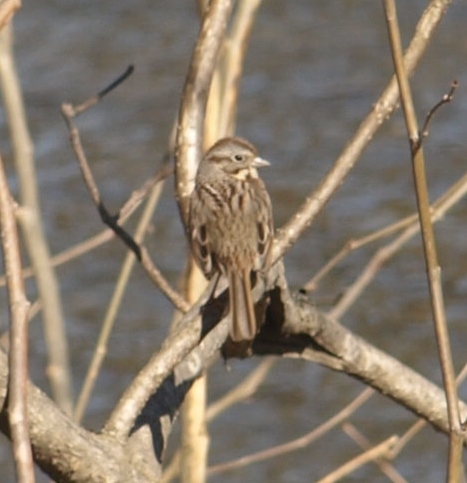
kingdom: Animalia
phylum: Chordata
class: Aves
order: Passeriformes
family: Passerellidae
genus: Melospiza
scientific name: Melospiza melodia
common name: Song sparrow
